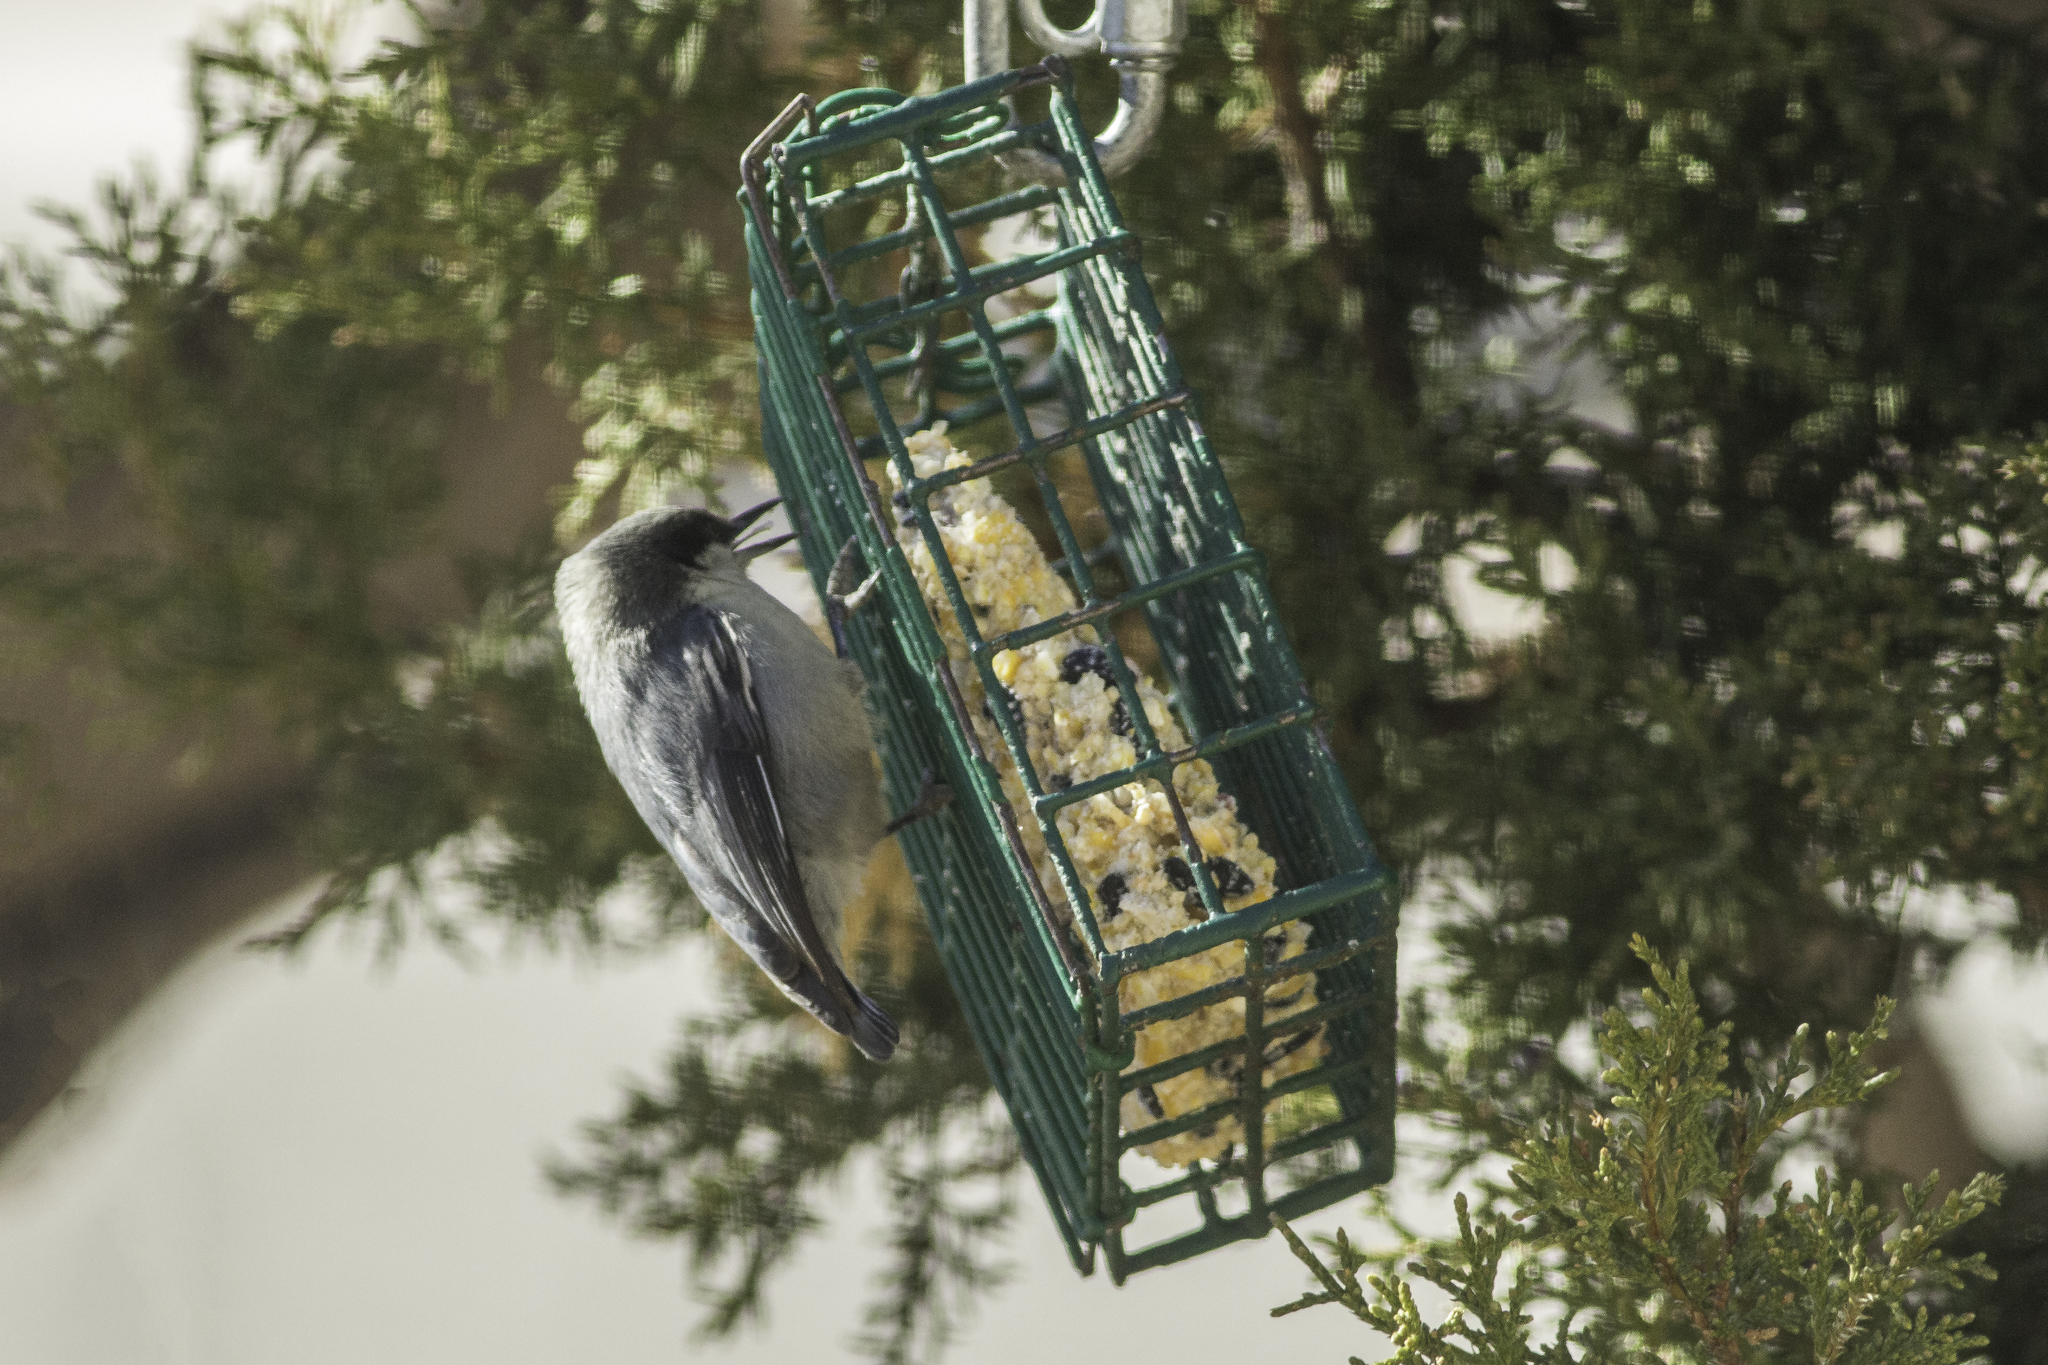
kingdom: Animalia
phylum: Chordata
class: Aves
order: Passeriformes
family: Sittidae
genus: Sitta
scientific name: Sitta pygmaea
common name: Pygmy nuthatch
